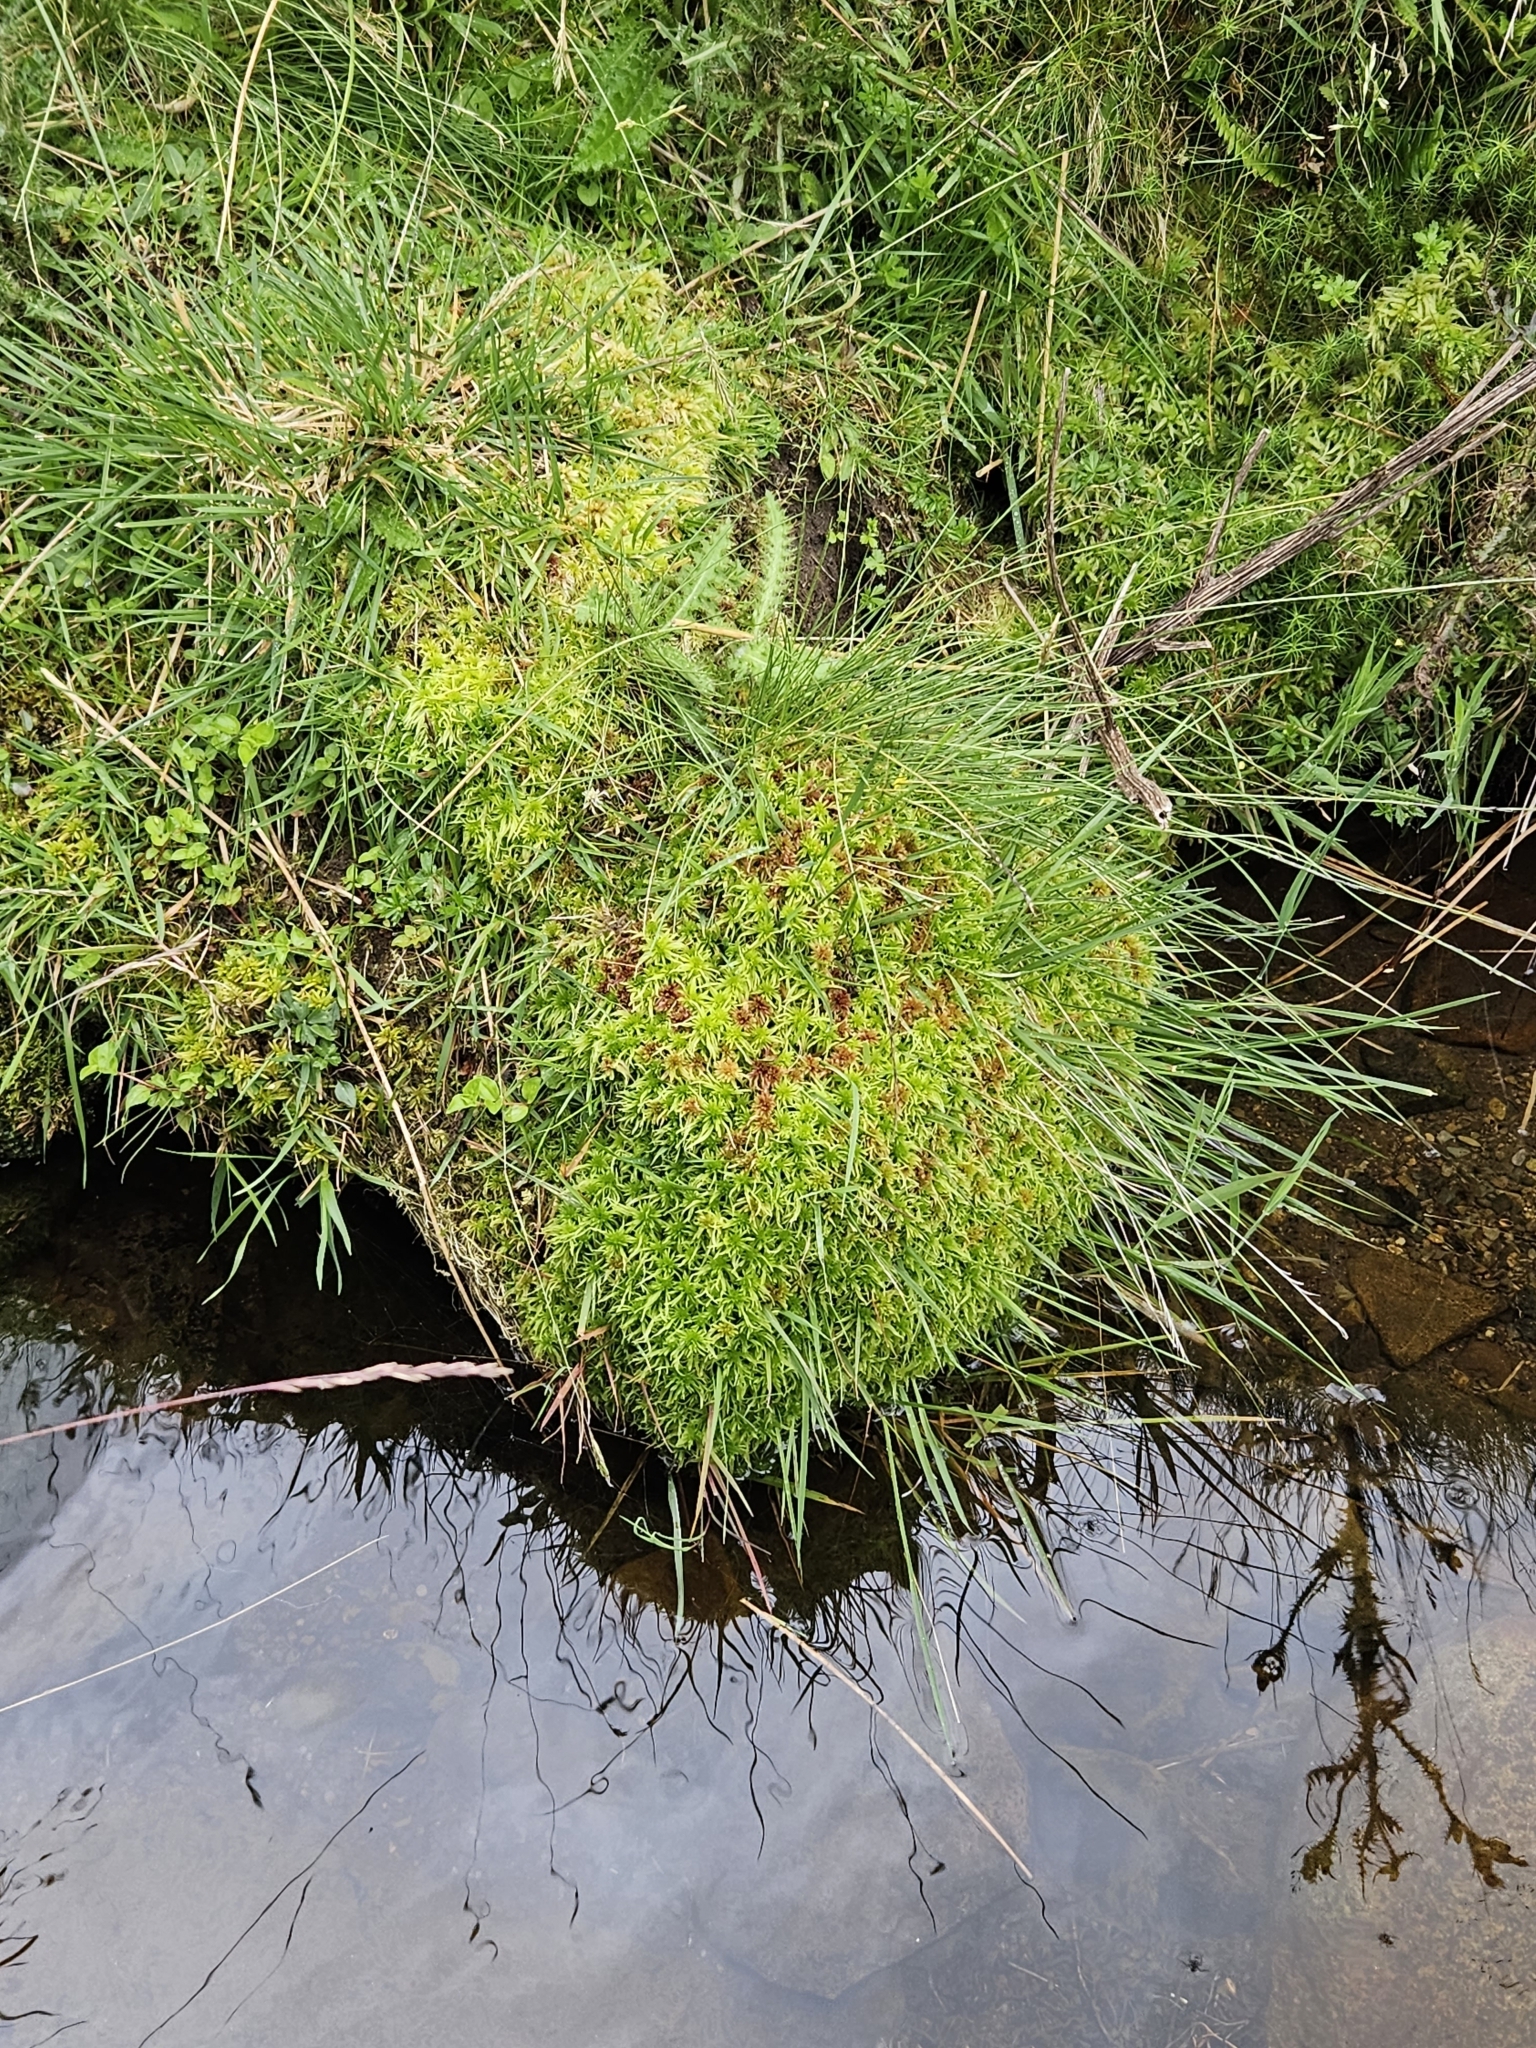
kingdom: Plantae
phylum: Bryophyta
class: Sphagnopsida
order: Sphagnales
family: Sphagnaceae
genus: Sphagnum
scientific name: Sphagnum russowii
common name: Russow's peat moss
